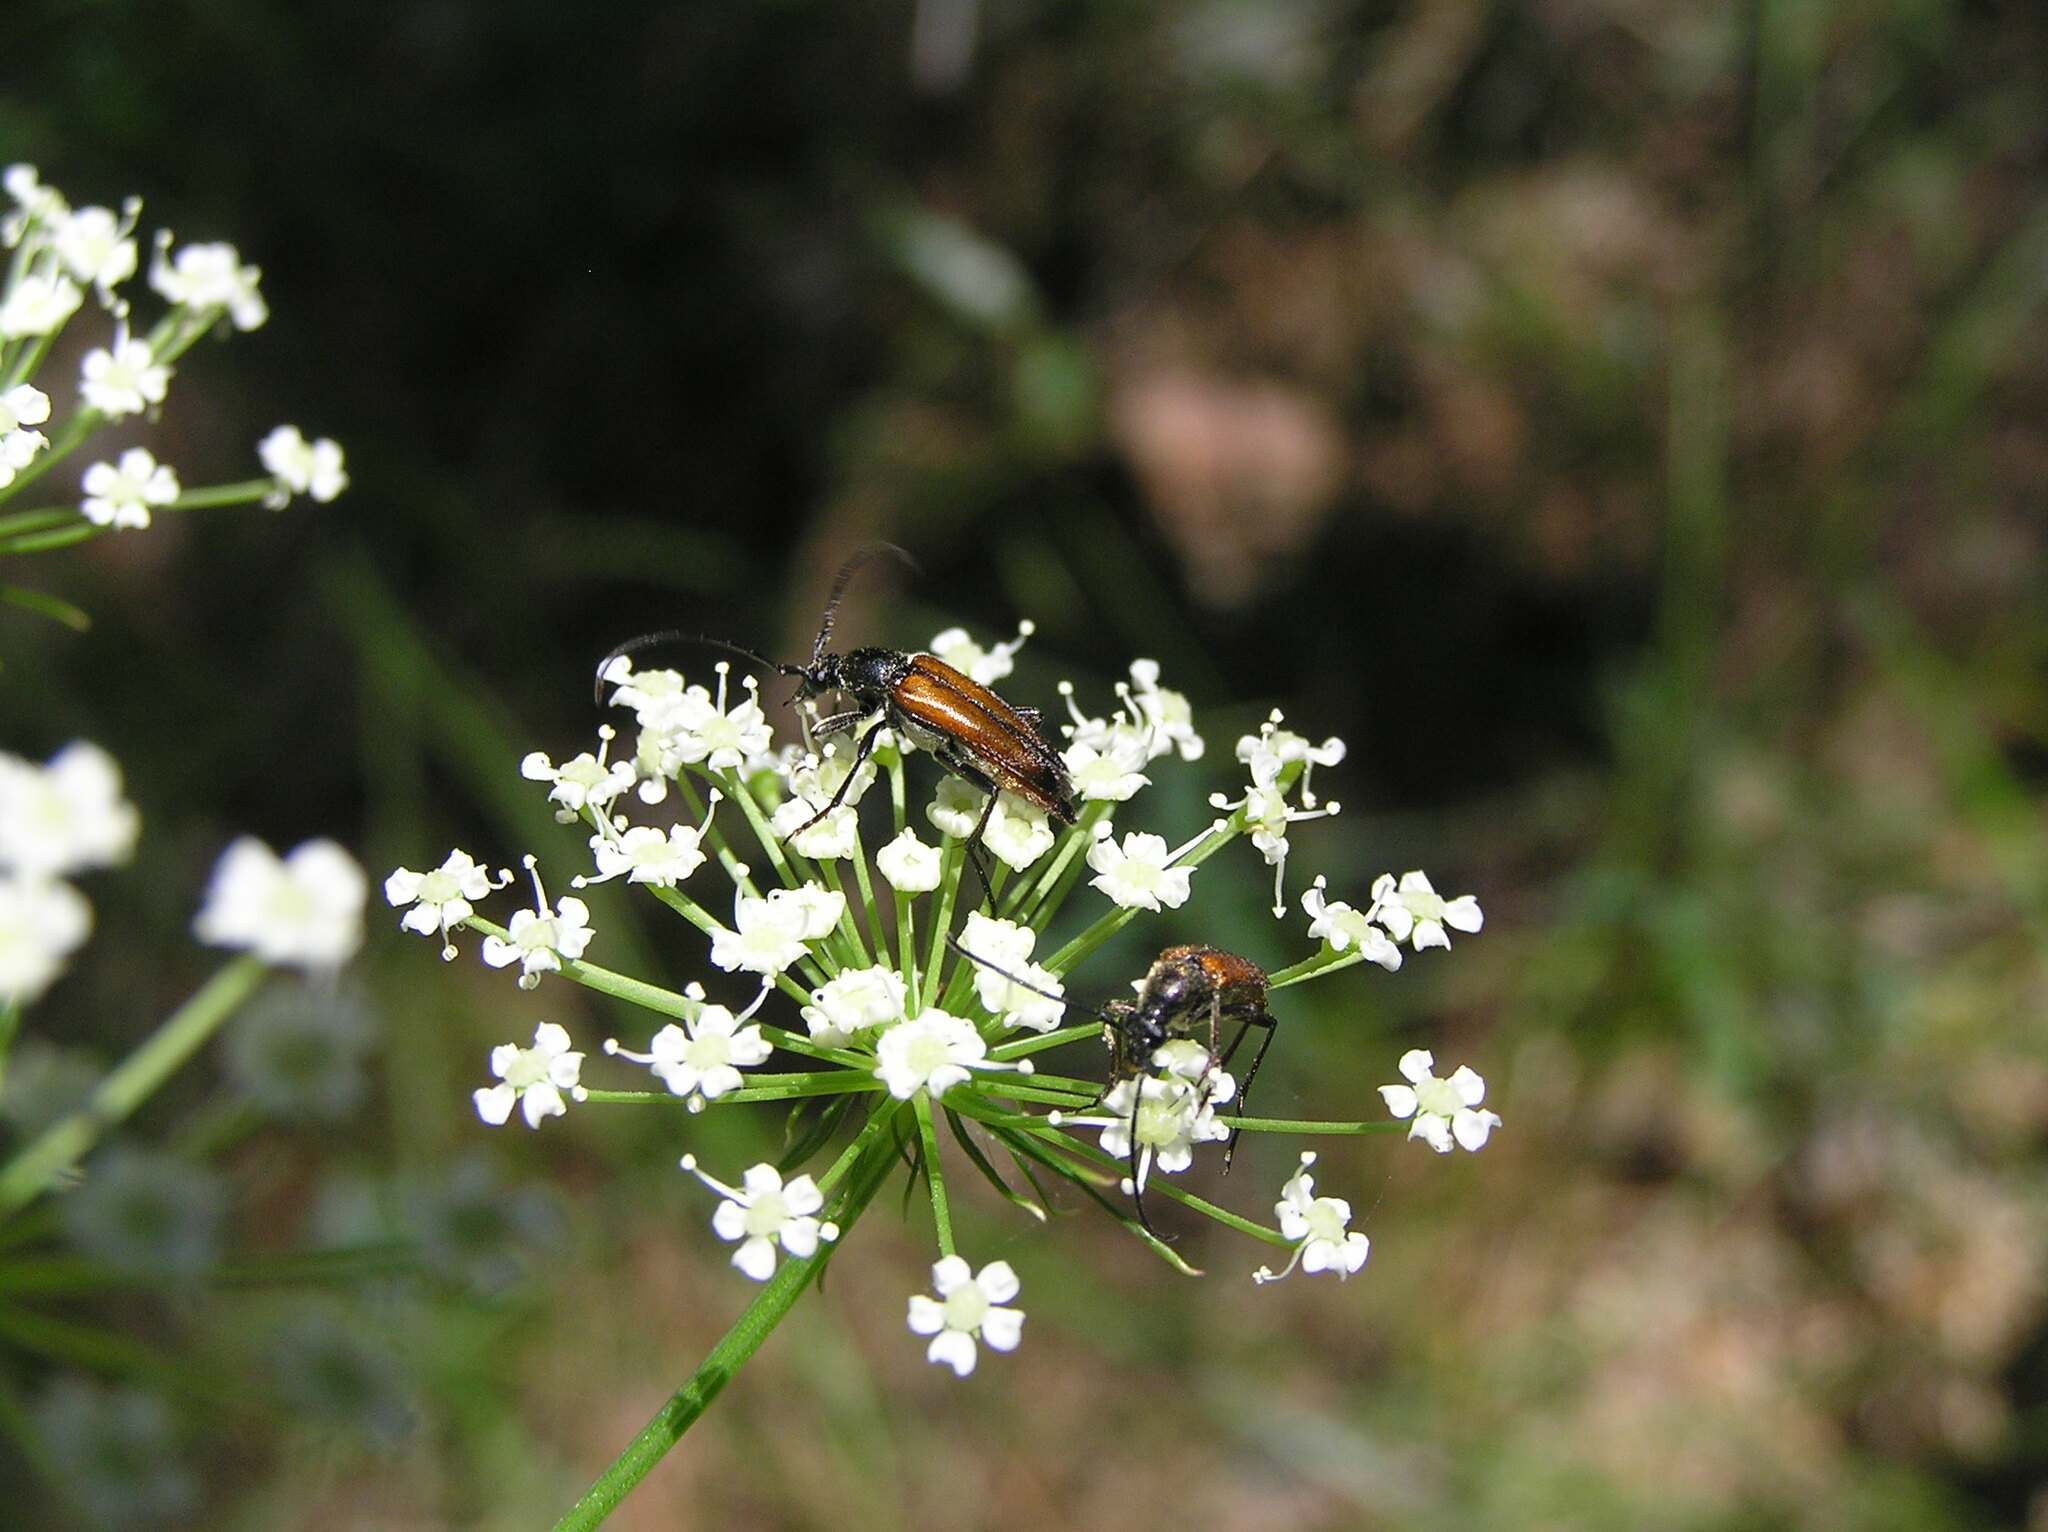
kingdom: Animalia
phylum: Arthropoda
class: Insecta
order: Coleoptera
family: Cerambycidae
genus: Stenurella
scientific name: Stenurella bifasciata
